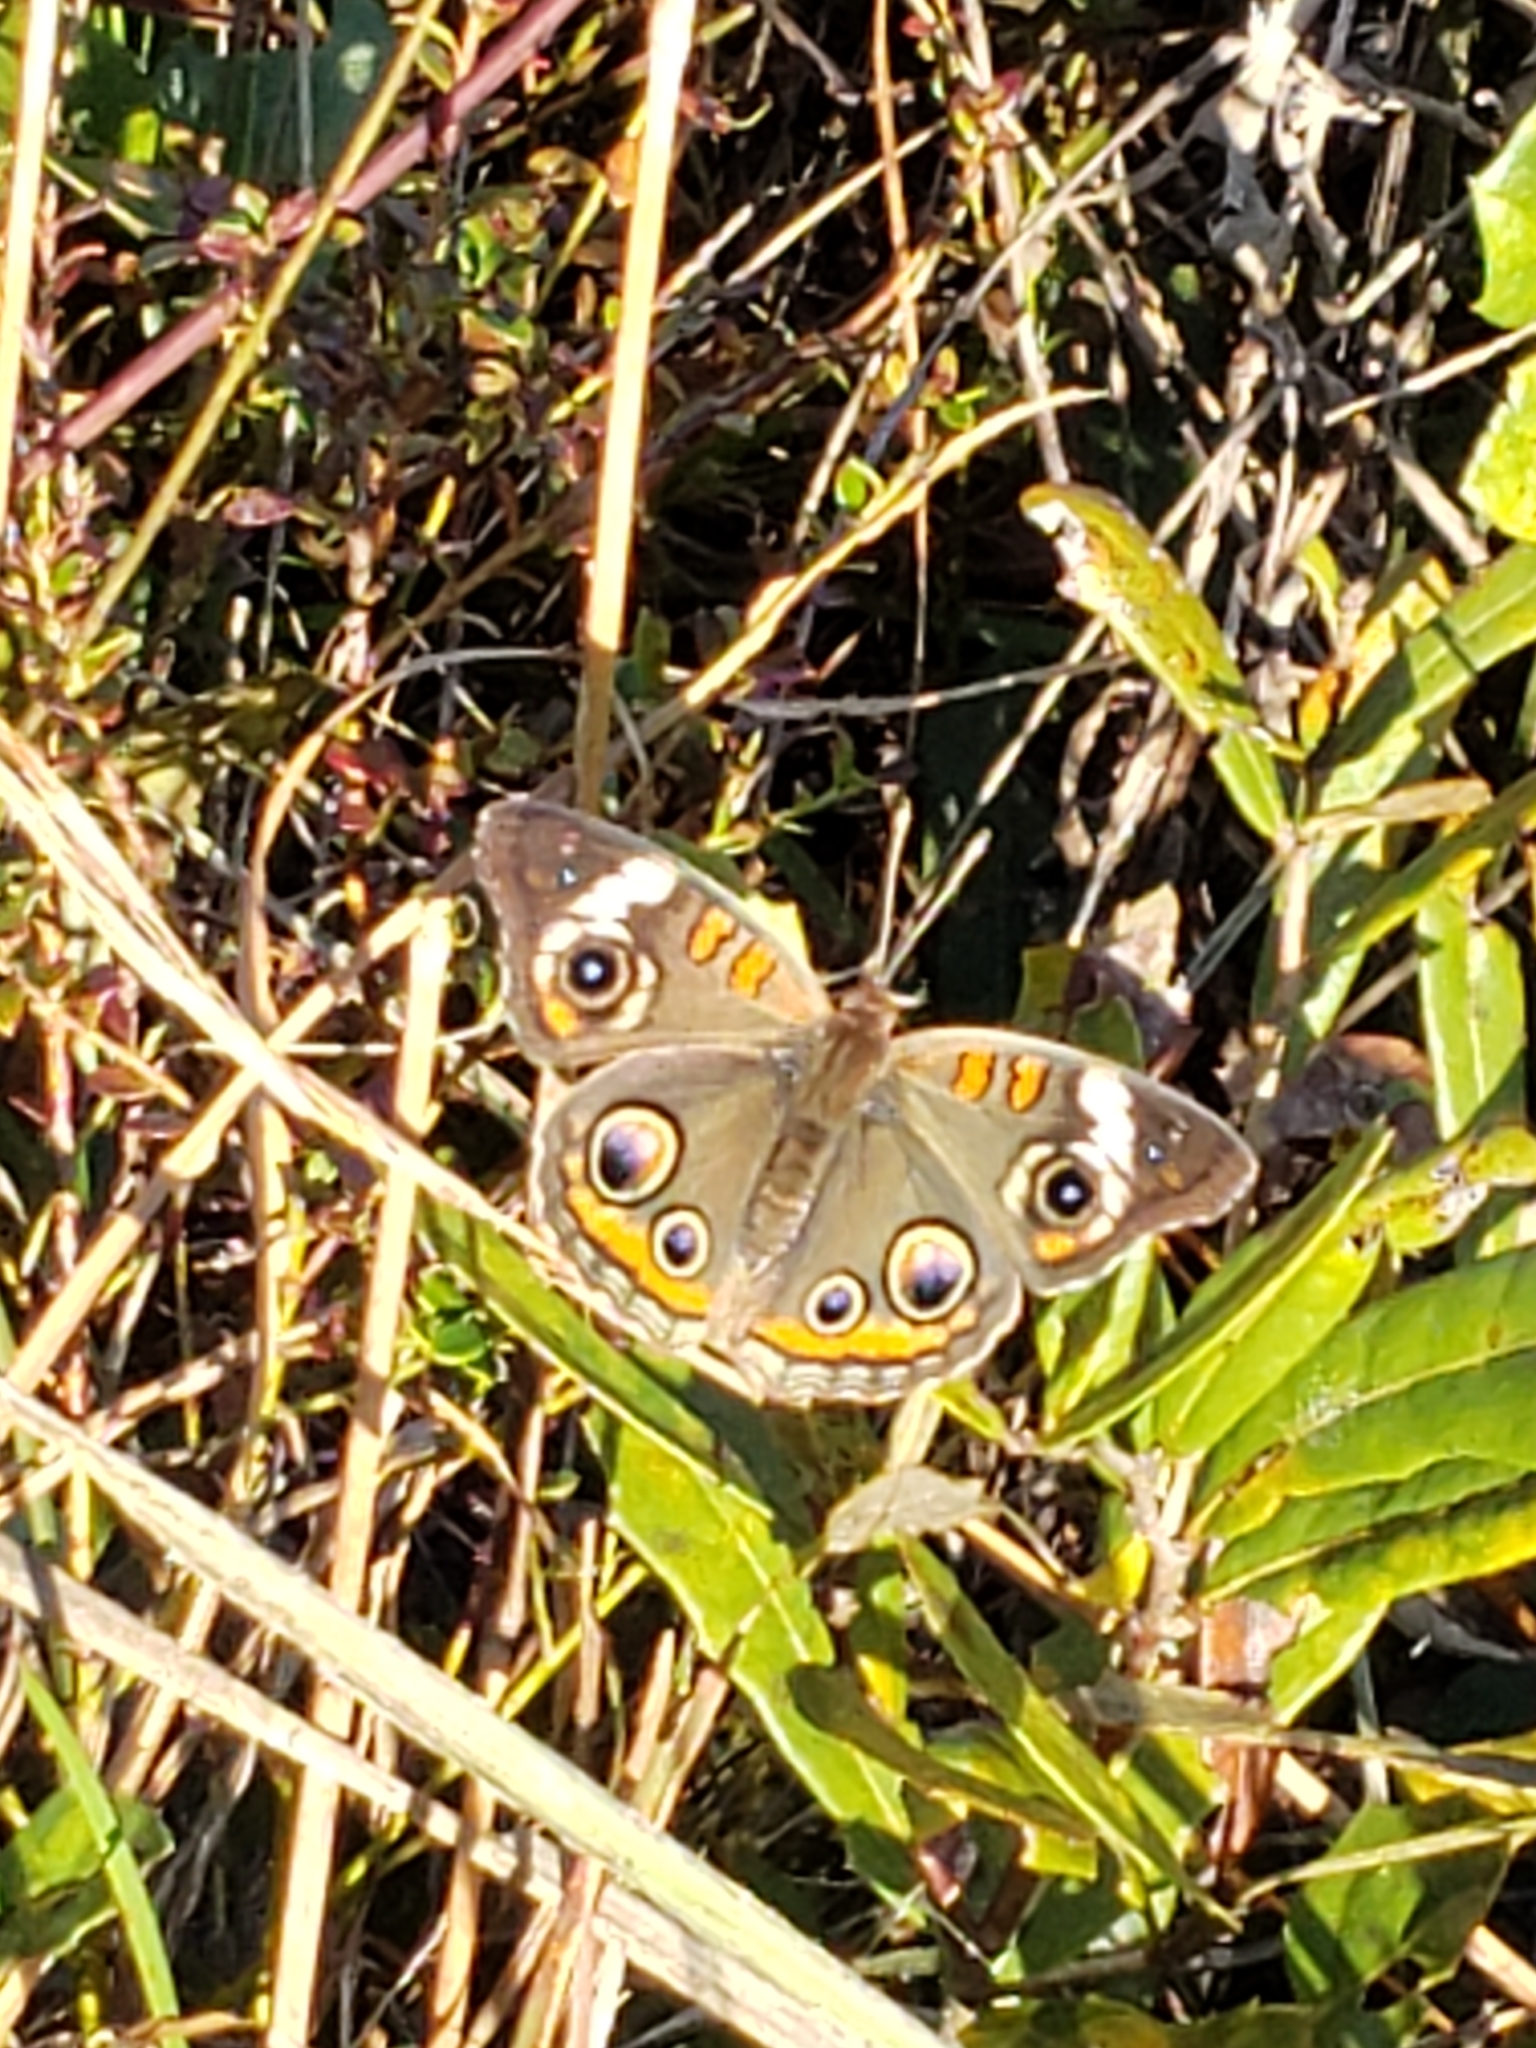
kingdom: Animalia
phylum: Arthropoda
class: Insecta
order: Lepidoptera
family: Nymphalidae
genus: Junonia
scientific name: Junonia coenia
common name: Common buckeye
